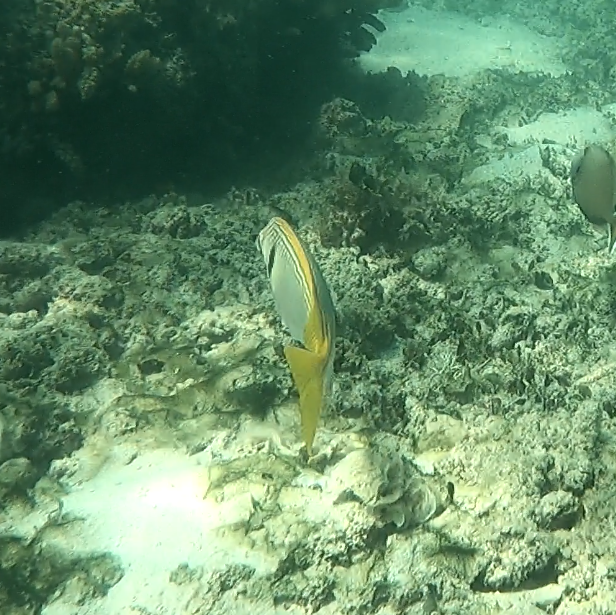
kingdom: Animalia
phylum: Chordata
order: Perciformes
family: Siganidae
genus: Siganus
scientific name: Siganus doliatus
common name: Barred spinefoot
